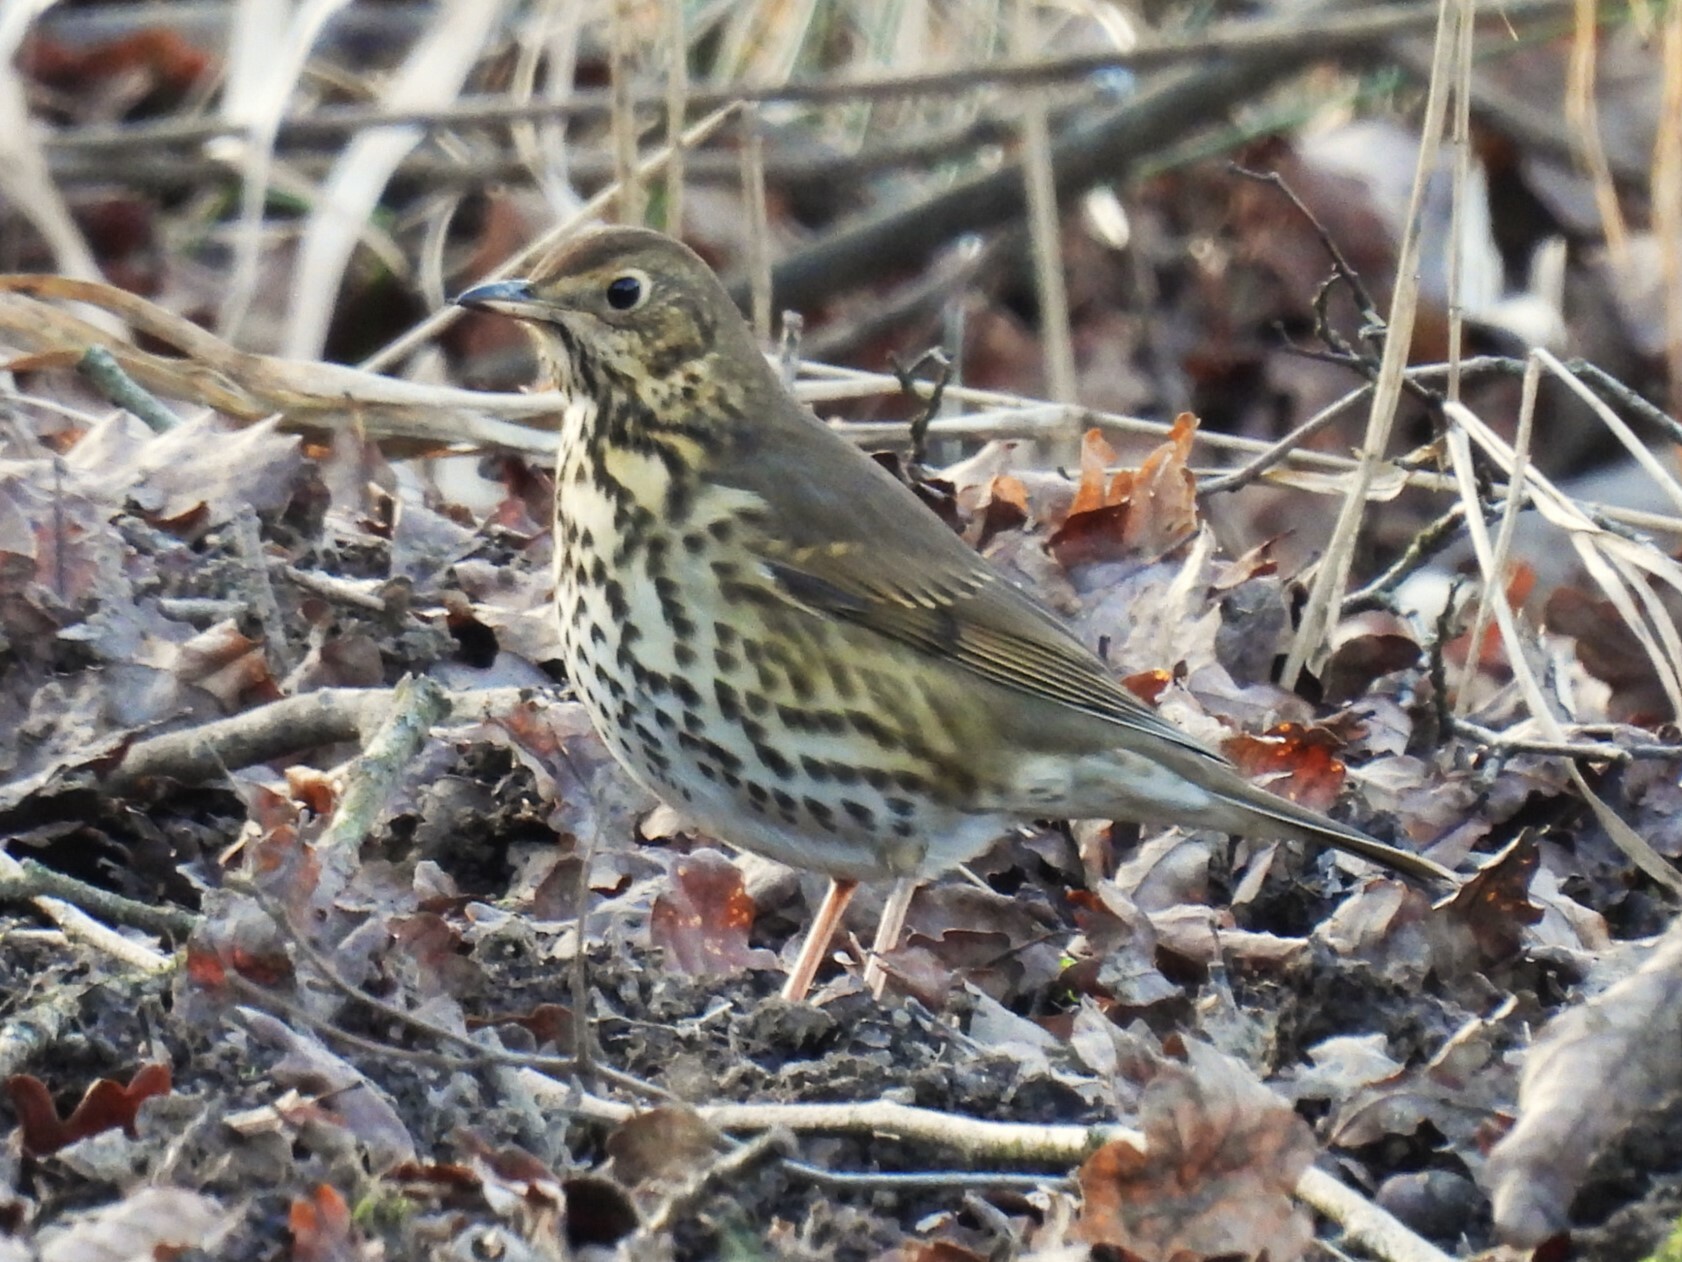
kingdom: Animalia
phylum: Chordata
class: Aves
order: Passeriformes
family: Turdidae
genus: Turdus
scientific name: Turdus philomelos
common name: Song thrush
